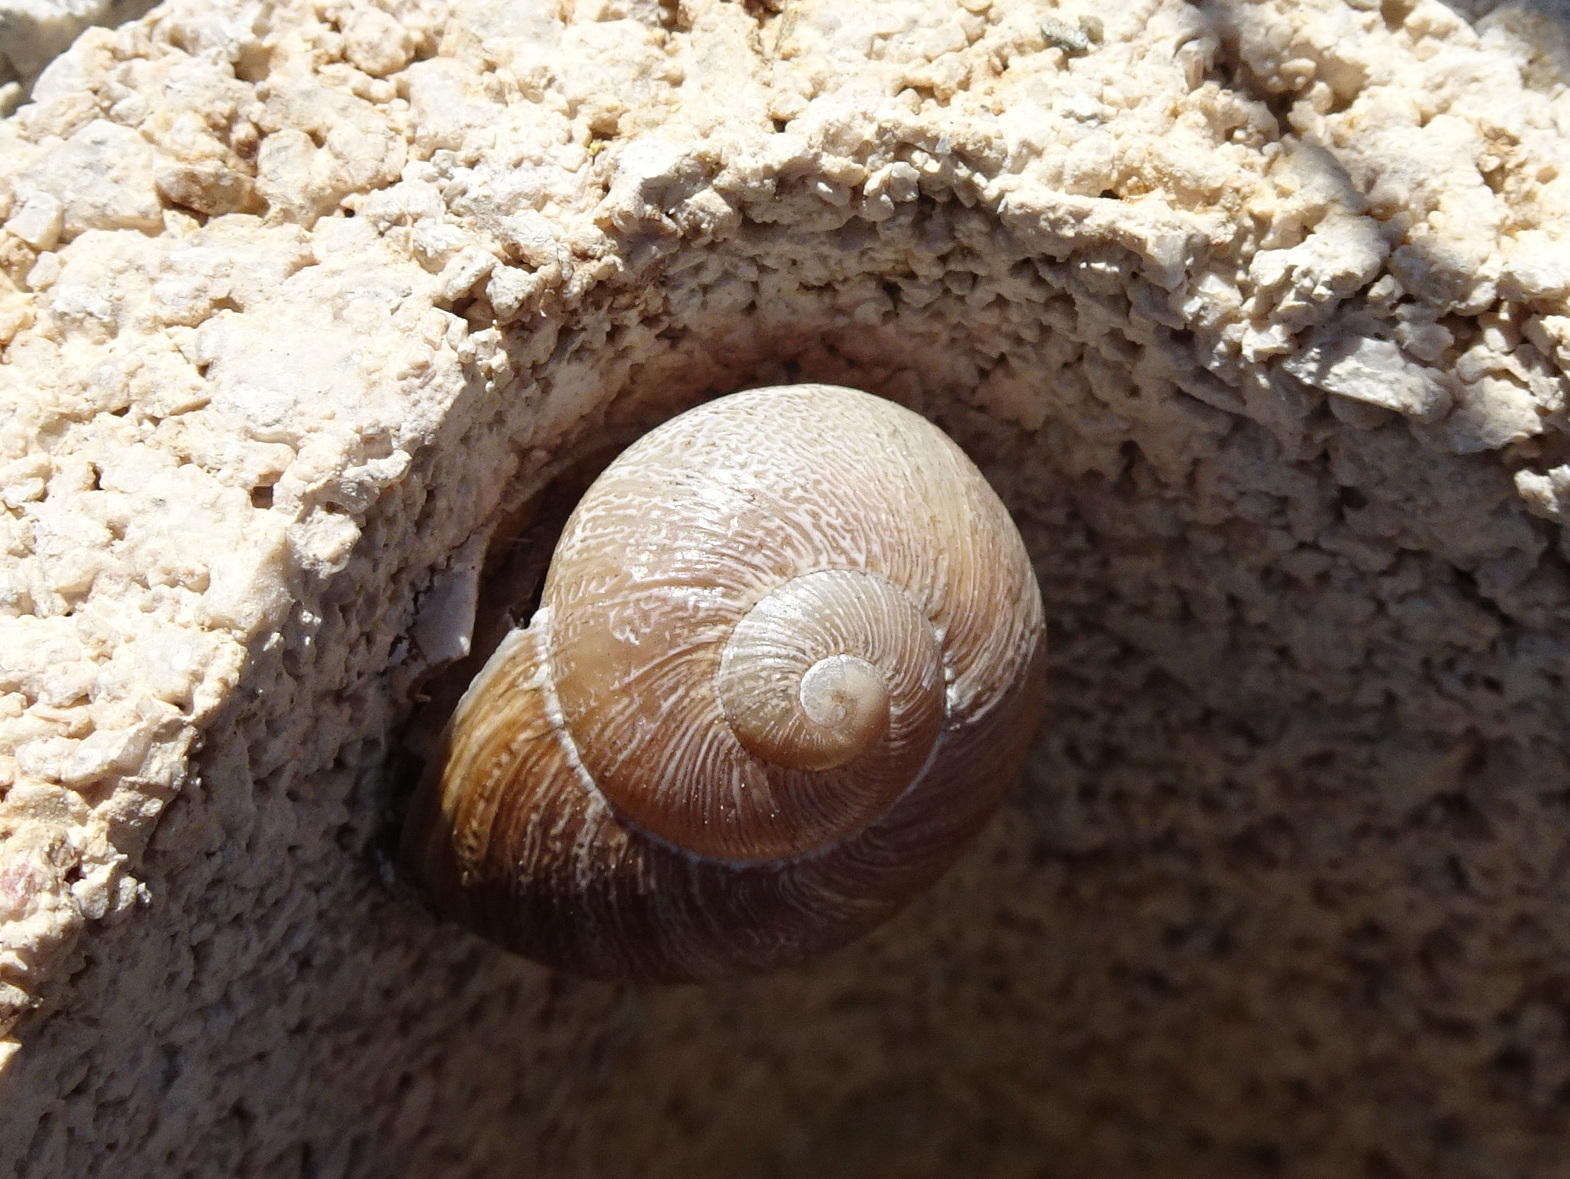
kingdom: Animalia
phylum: Mollusca
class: Gastropoda
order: Stylommatophora
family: Helicidae
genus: Cornu
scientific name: Cornu aspersum
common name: Brown garden snail
